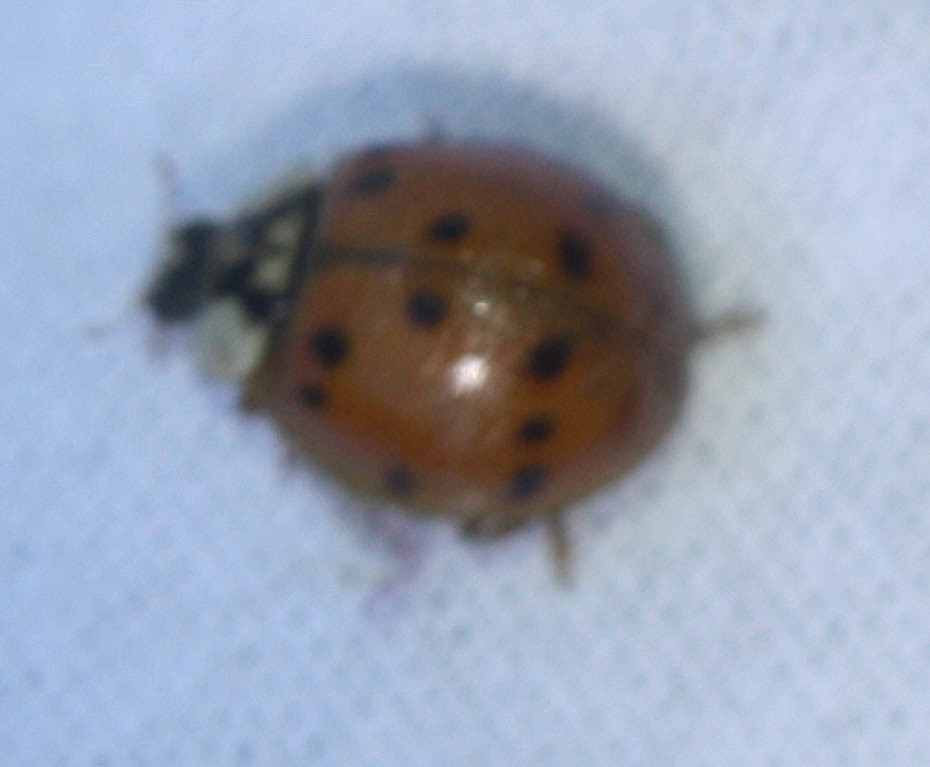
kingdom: Animalia
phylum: Arthropoda
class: Insecta
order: Coleoptera
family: Coccinellidae
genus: Harmonia
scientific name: Harmonia axyridis
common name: Harlequin ladybird
